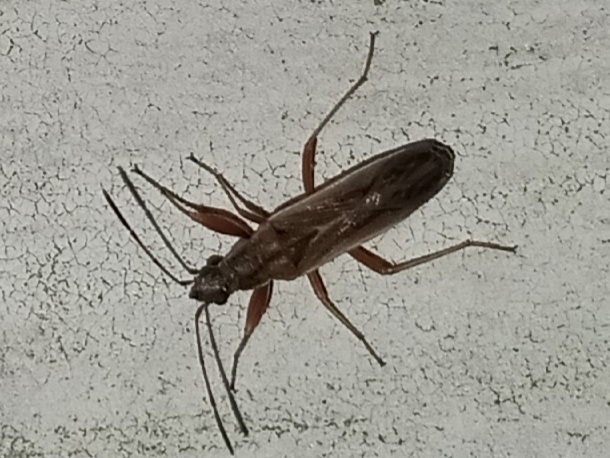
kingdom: Animalia
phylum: Arthropoda
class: Insecta
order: Hemiptera
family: Rhyparochromidae
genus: Paromius
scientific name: Paromius longulus
